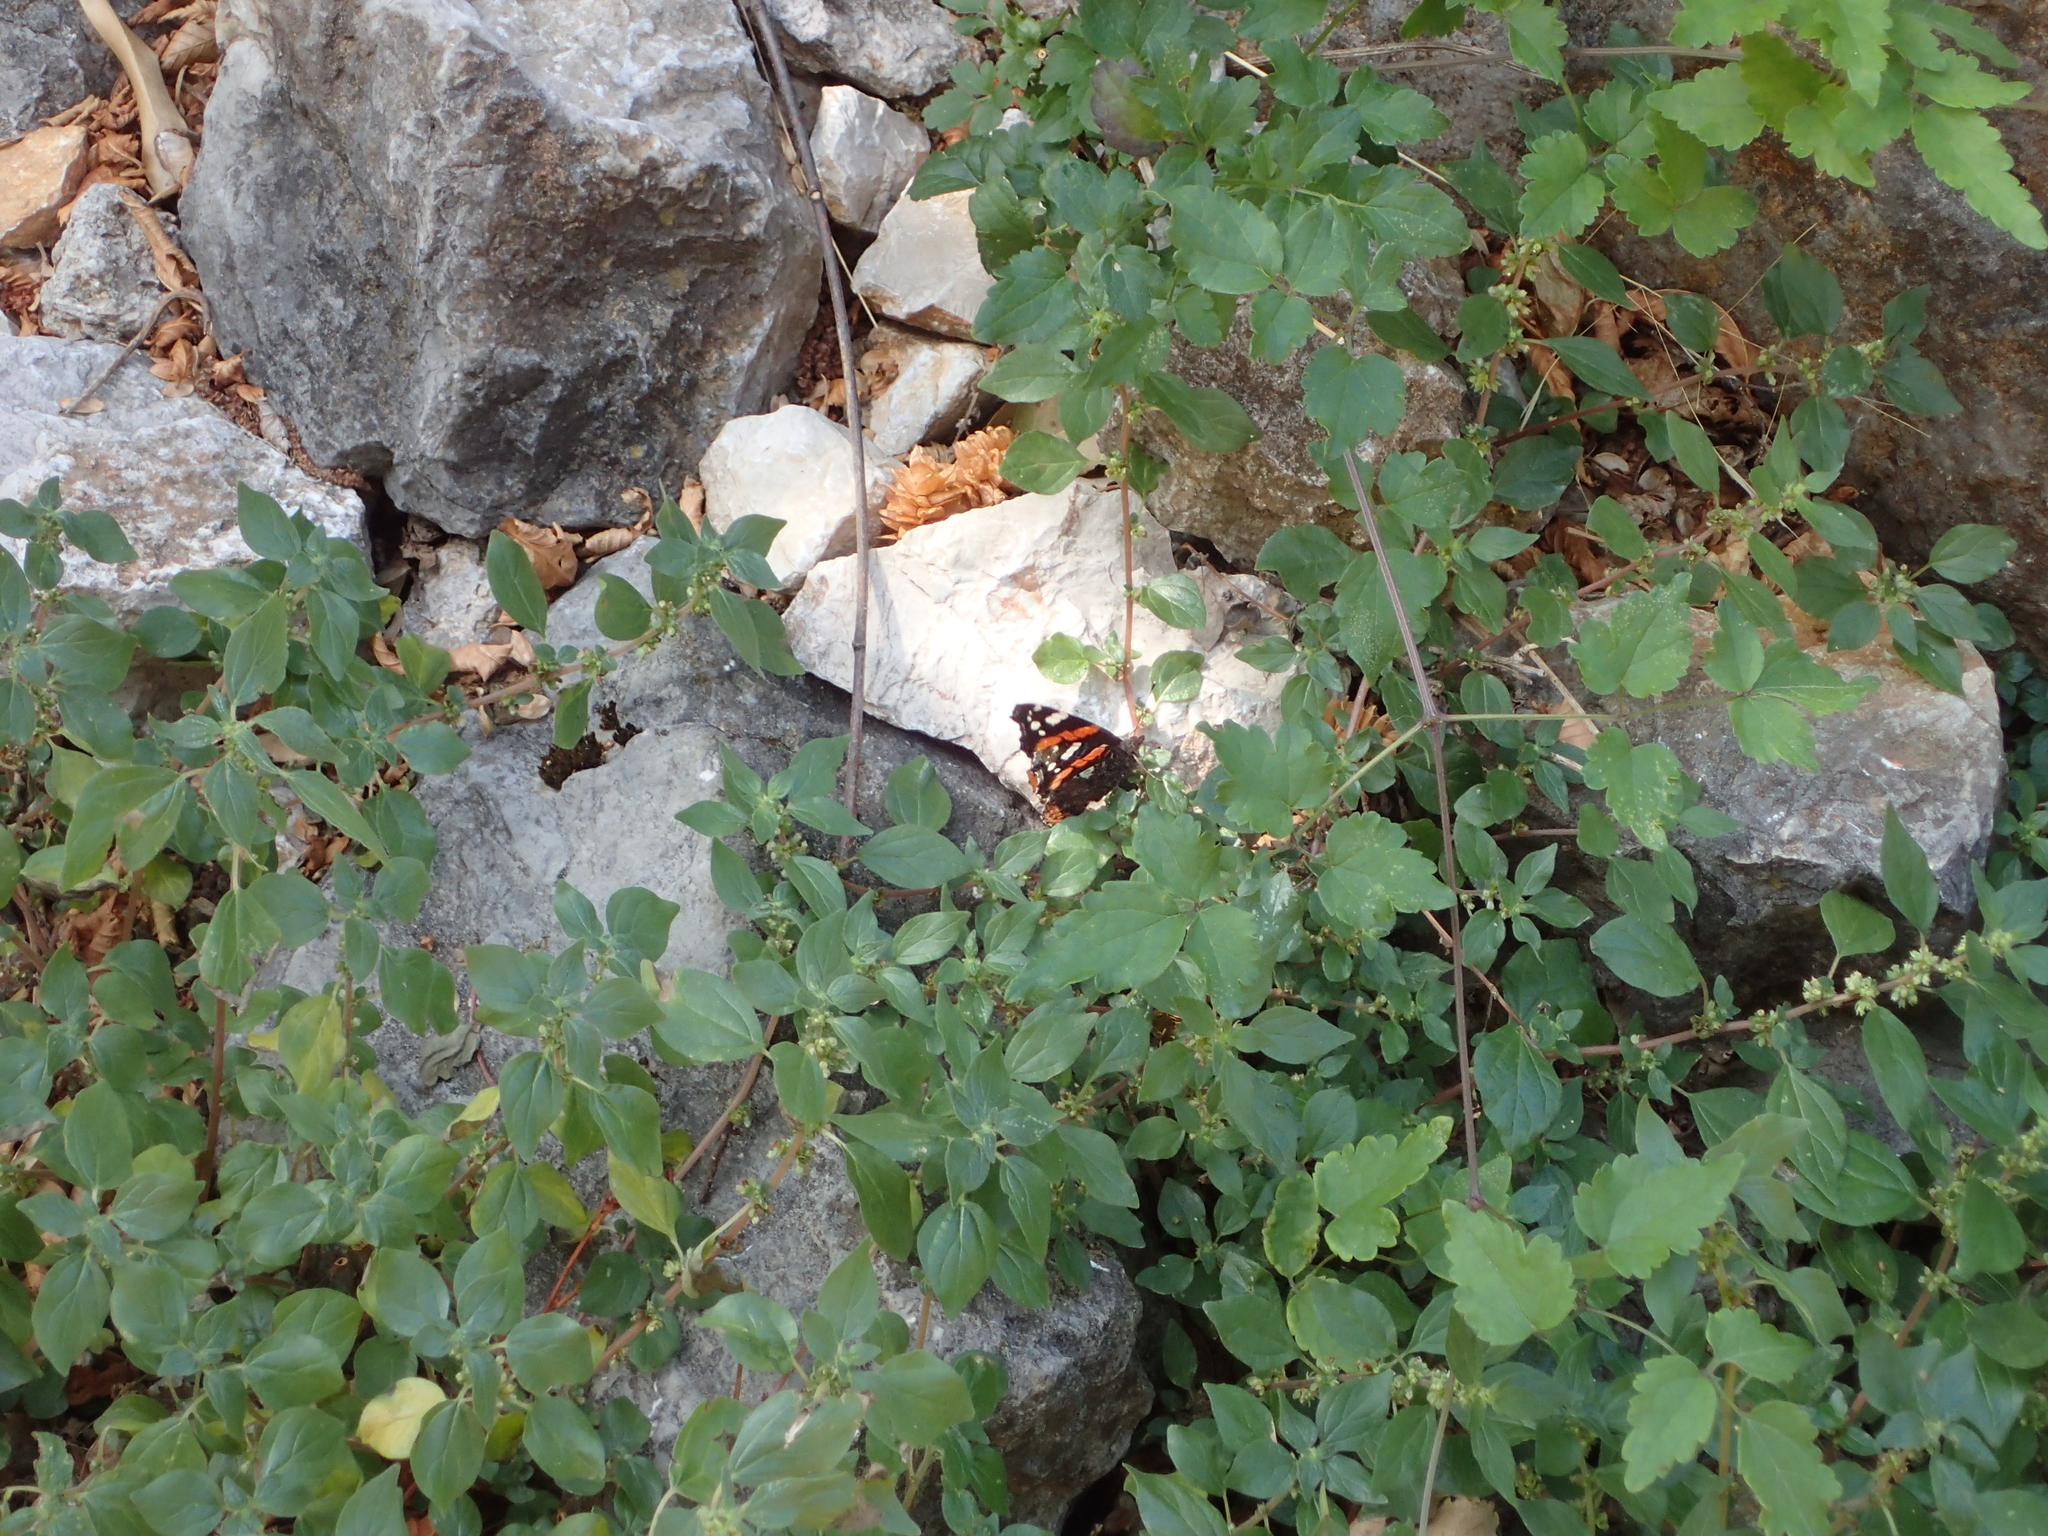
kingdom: Animalia
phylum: Arthropoda
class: Insecta
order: Lepidoptera
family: Nymphalidae
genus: Vanessa
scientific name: Vanessa atalanta
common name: Red admiral
